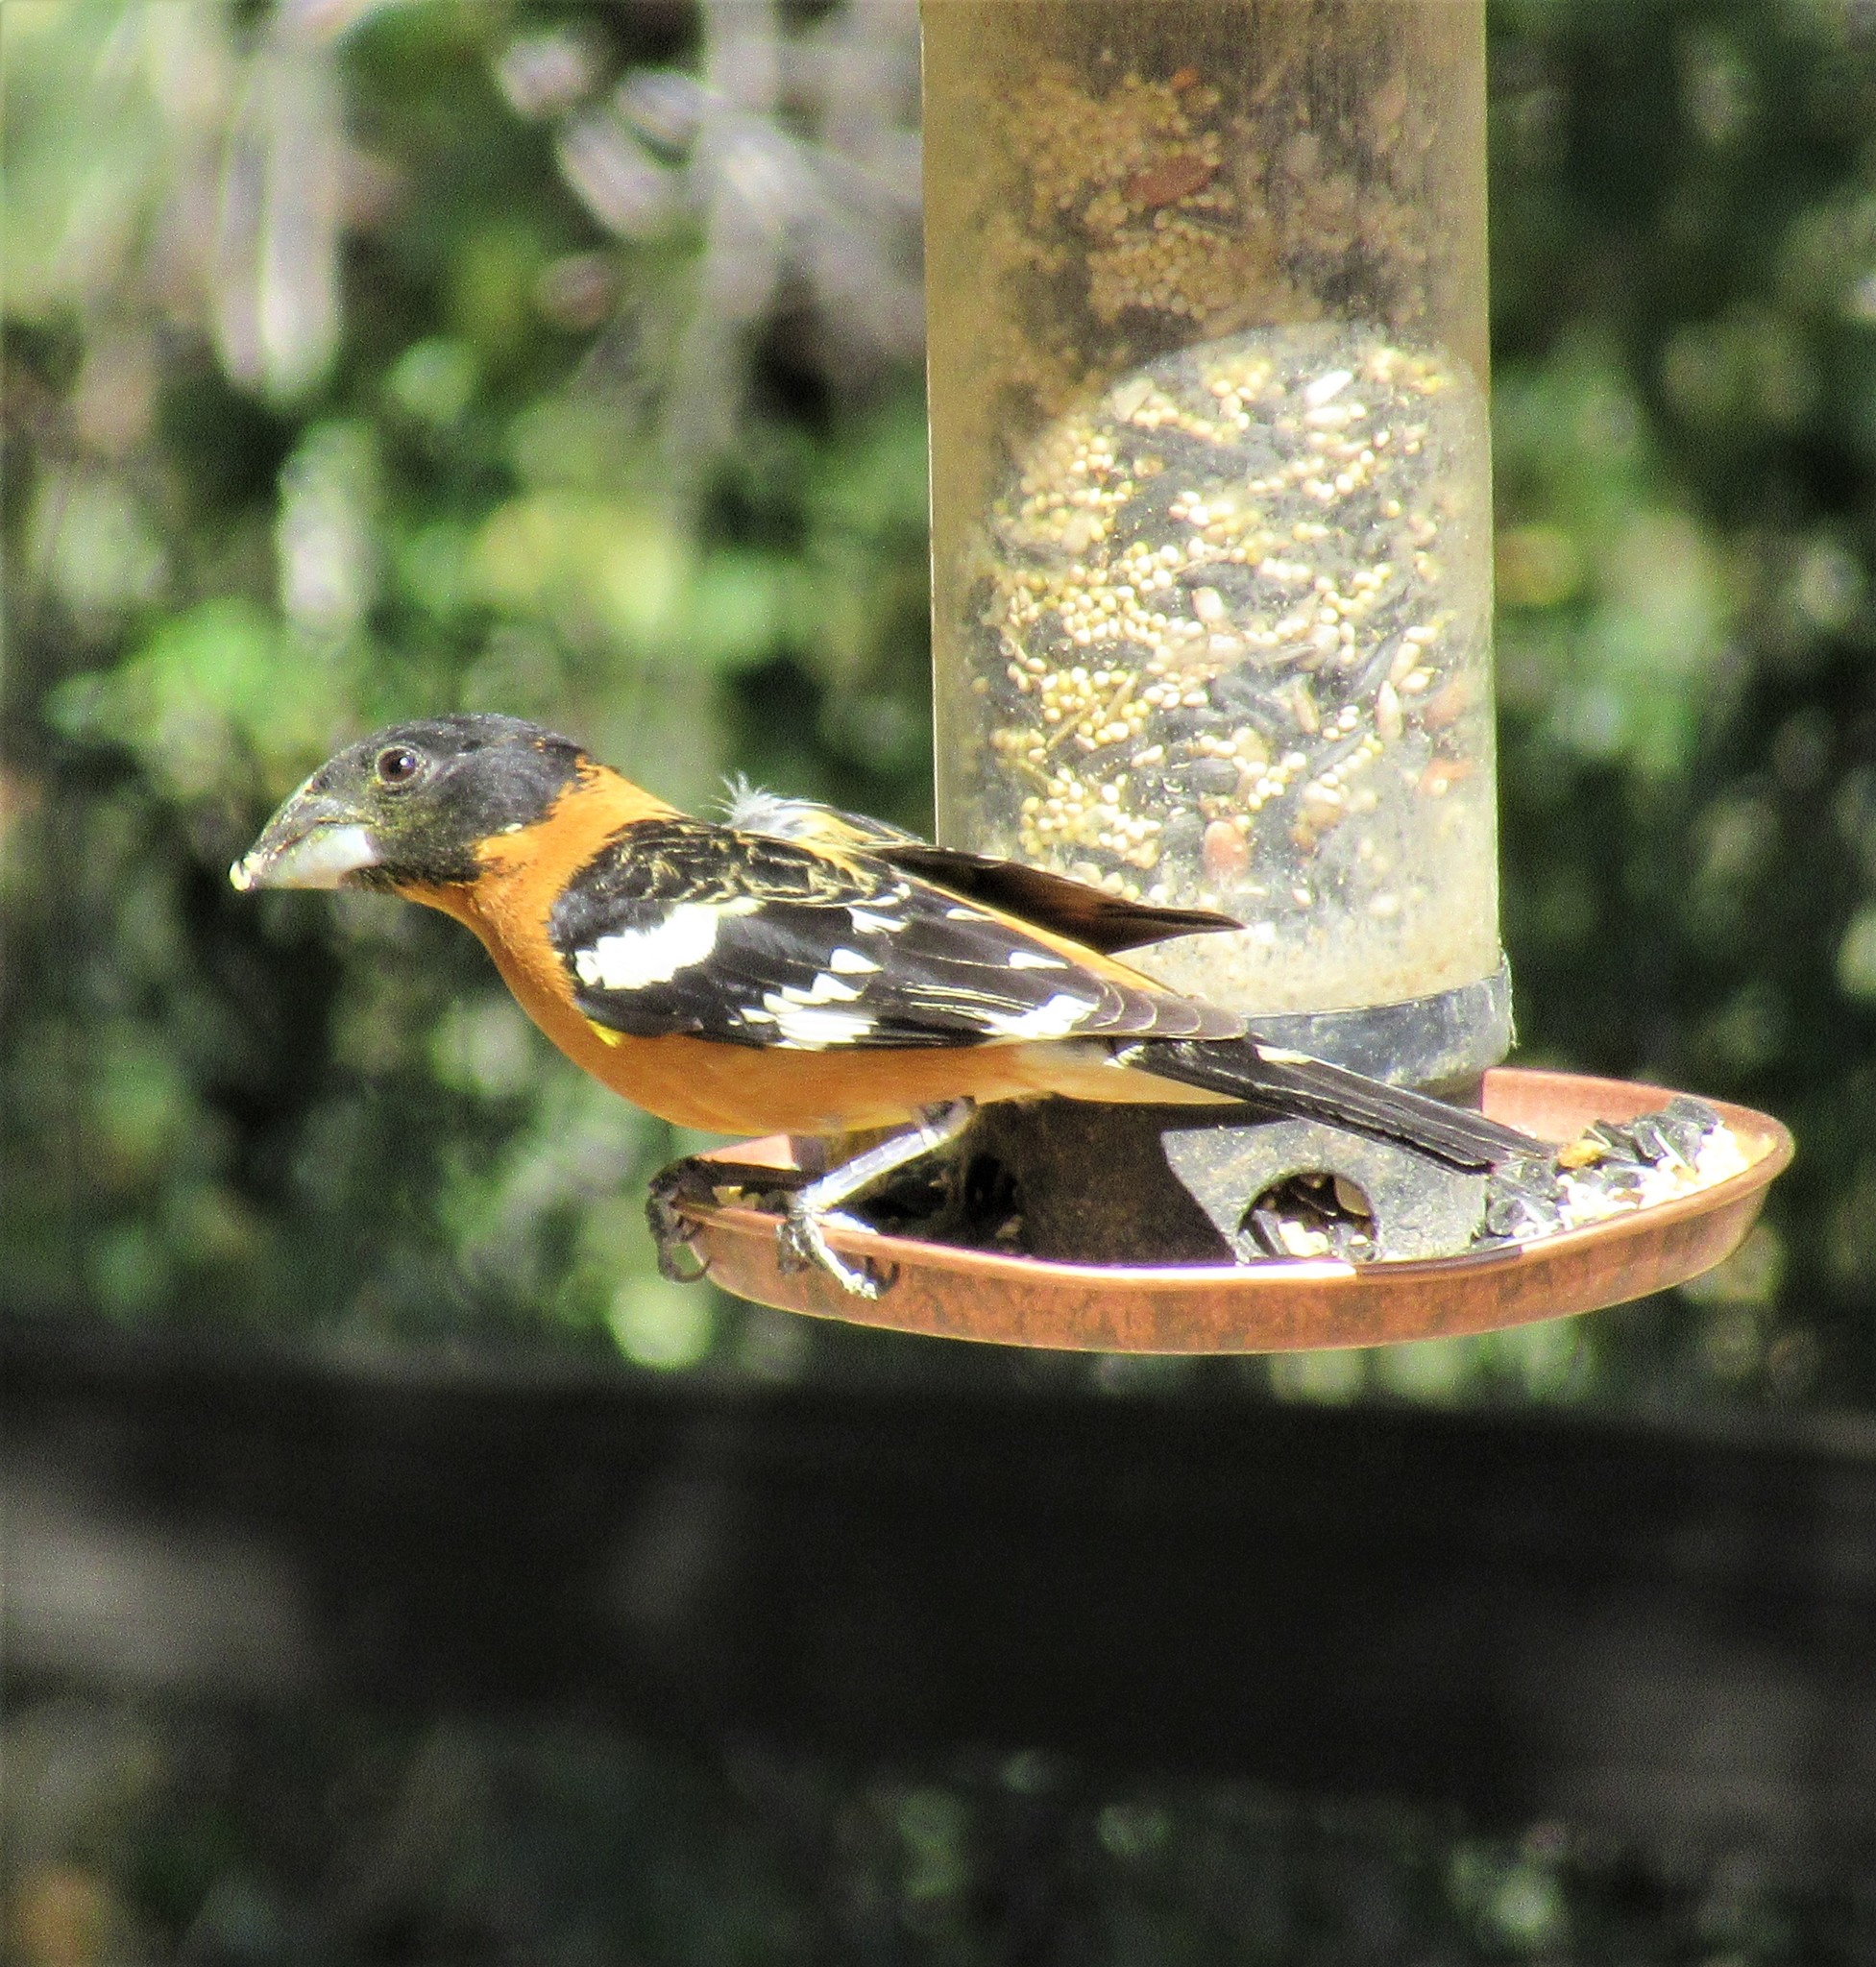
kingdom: Animalia
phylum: Chordata
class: Aves
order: Passeriformes
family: Cardinalidae
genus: Pheucticus
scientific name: Pheucticus melanocephalus
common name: Black-headed grosbeak
